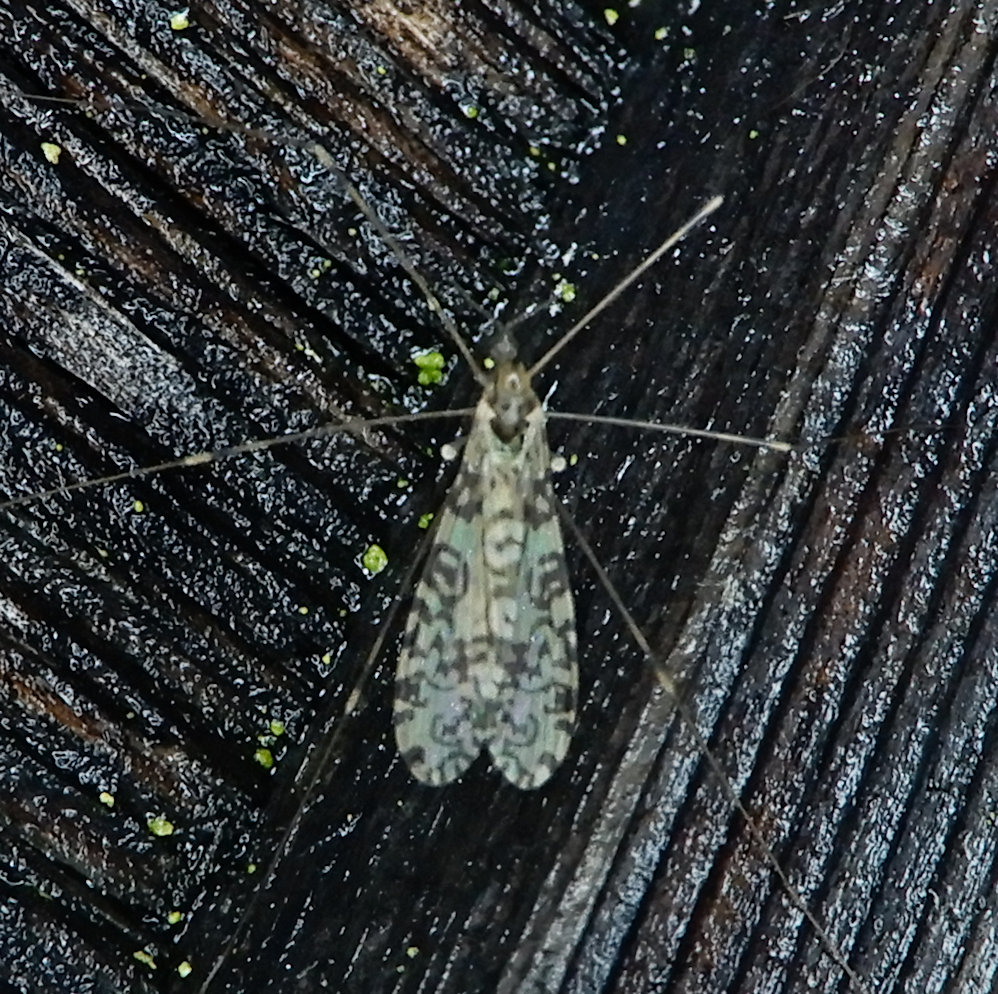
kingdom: Animalia
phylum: Arthropoda
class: Insecta
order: Diptera
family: Limoniidae
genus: Limonia
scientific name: Limonia annulata
